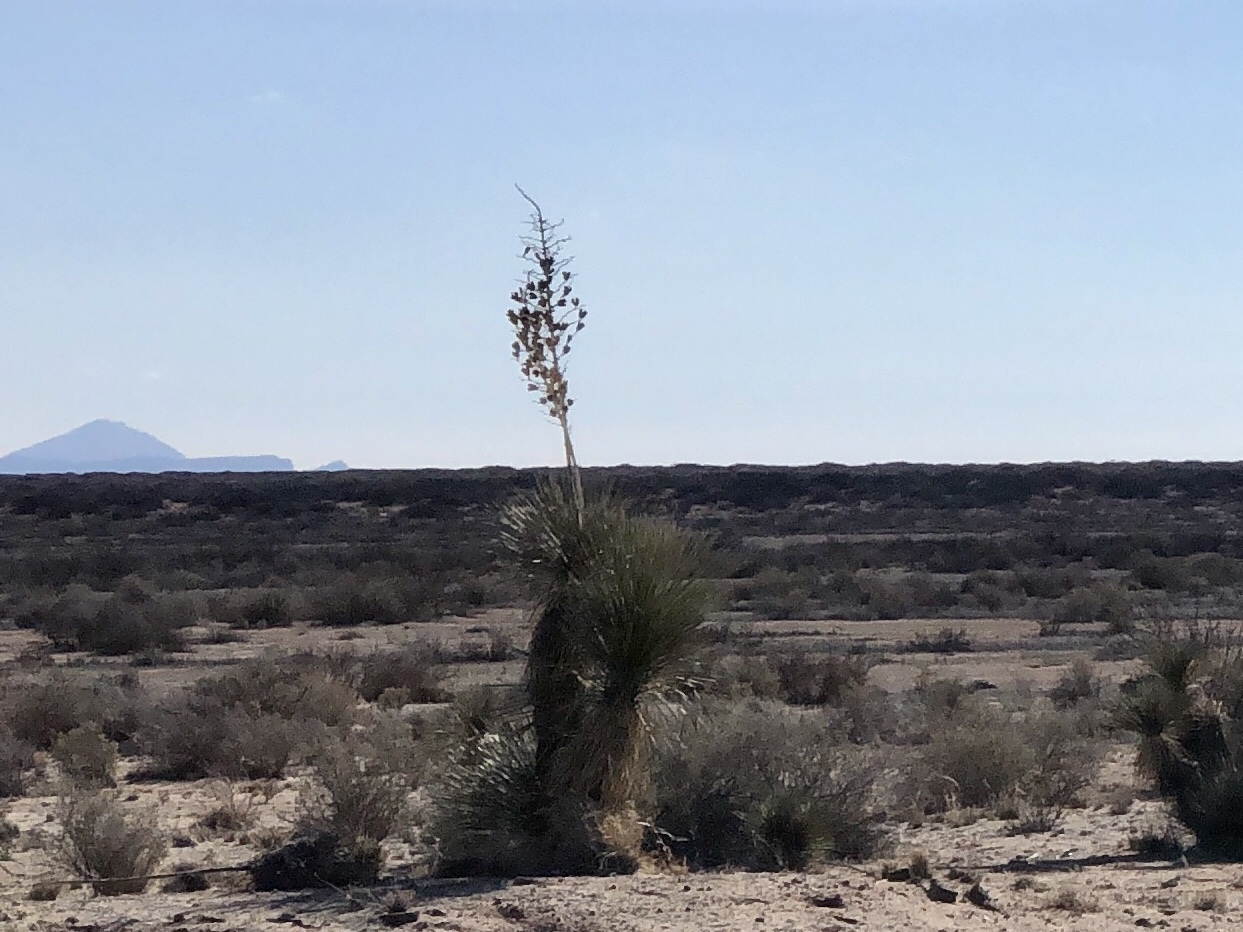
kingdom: Plantae
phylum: Tracheophyta
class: Liliopsida
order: Asparagales
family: Asparagaceae
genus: Yucca
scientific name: Yucca elata
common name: Palmella
